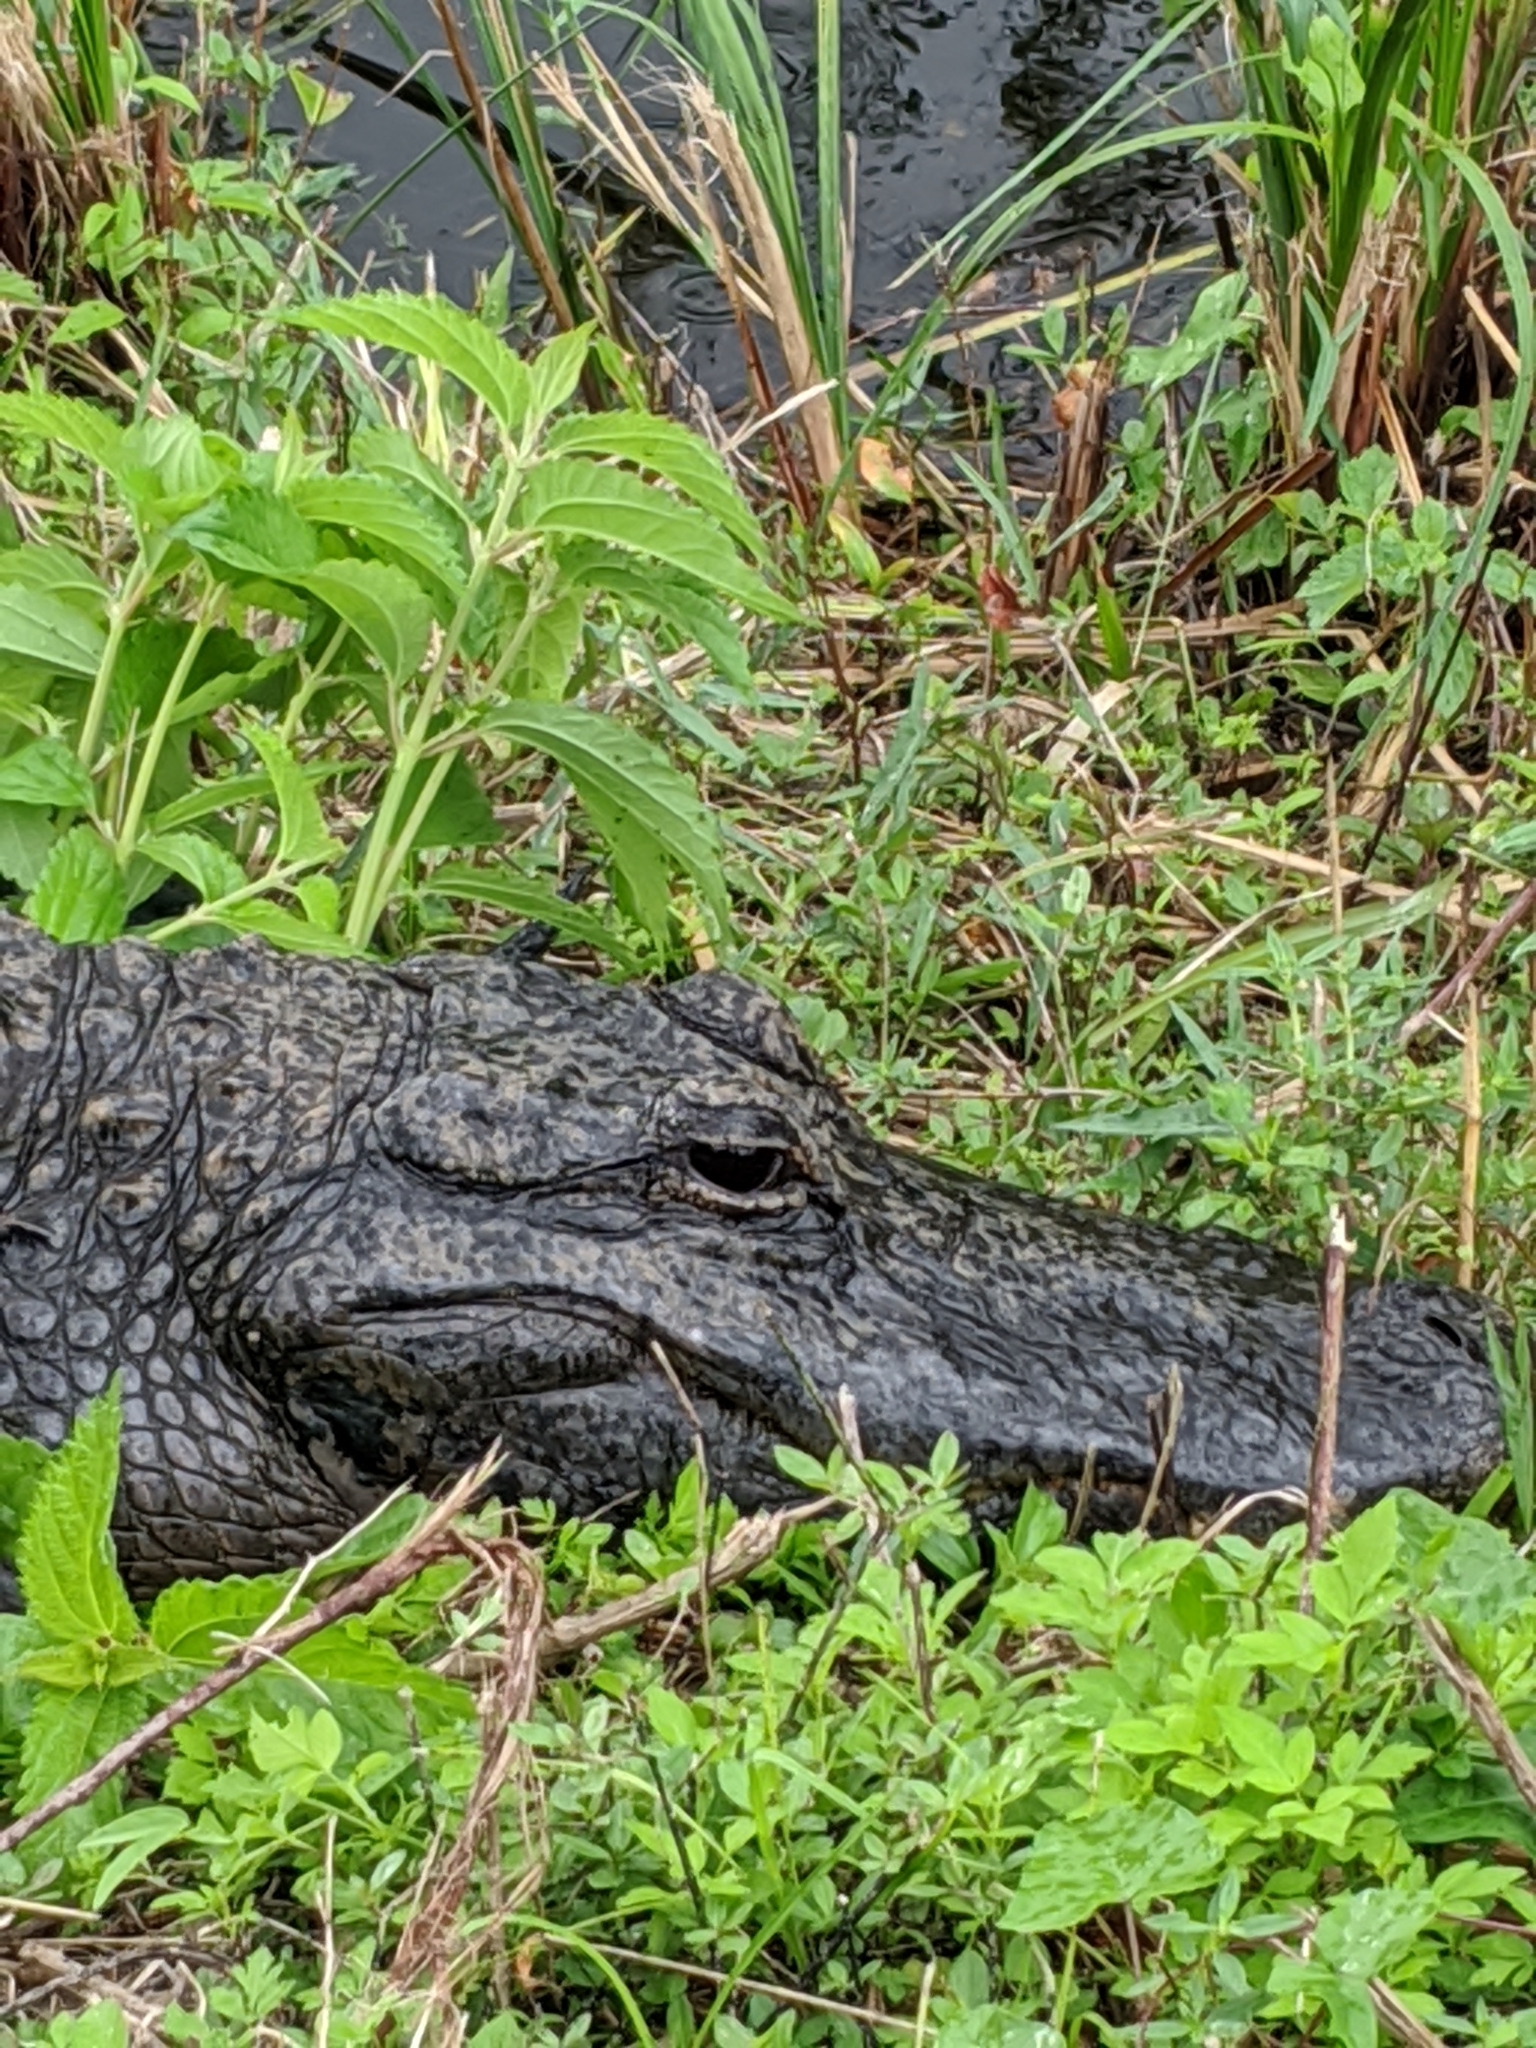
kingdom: Animalia
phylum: Chordata
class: Crocodylia
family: Alligatoridae
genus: Alligator
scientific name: Alligator mississippiensis
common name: American alligator
